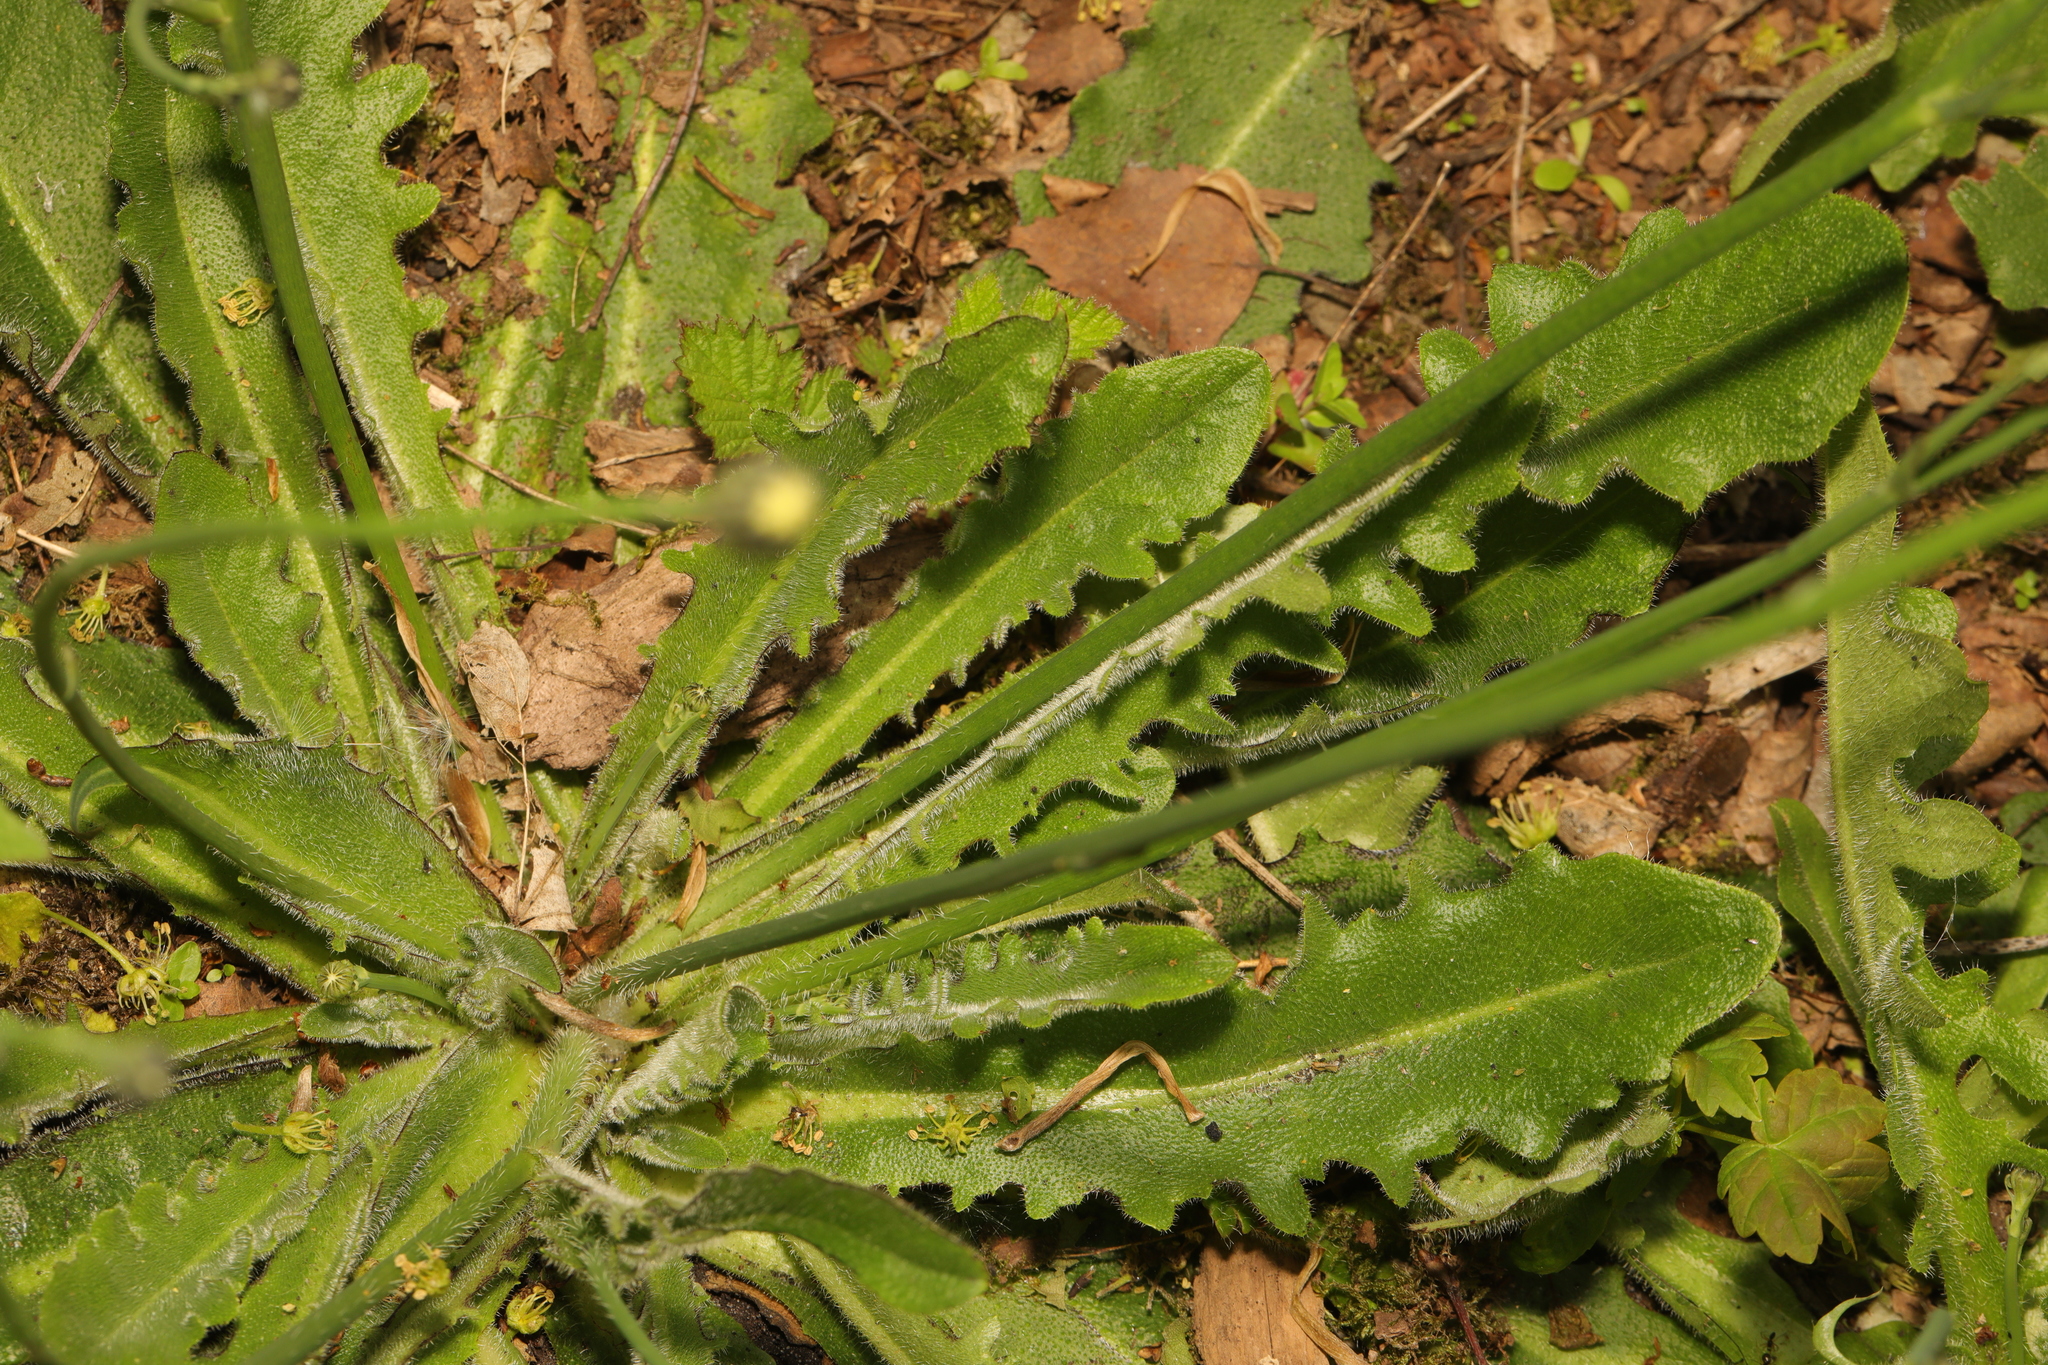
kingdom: Plantae
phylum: Tracheophyta
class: Magnoliopsida
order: Asterales
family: Asteraceae
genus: Hypochaeris
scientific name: Hypochaeris radicata
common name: Flatweed
